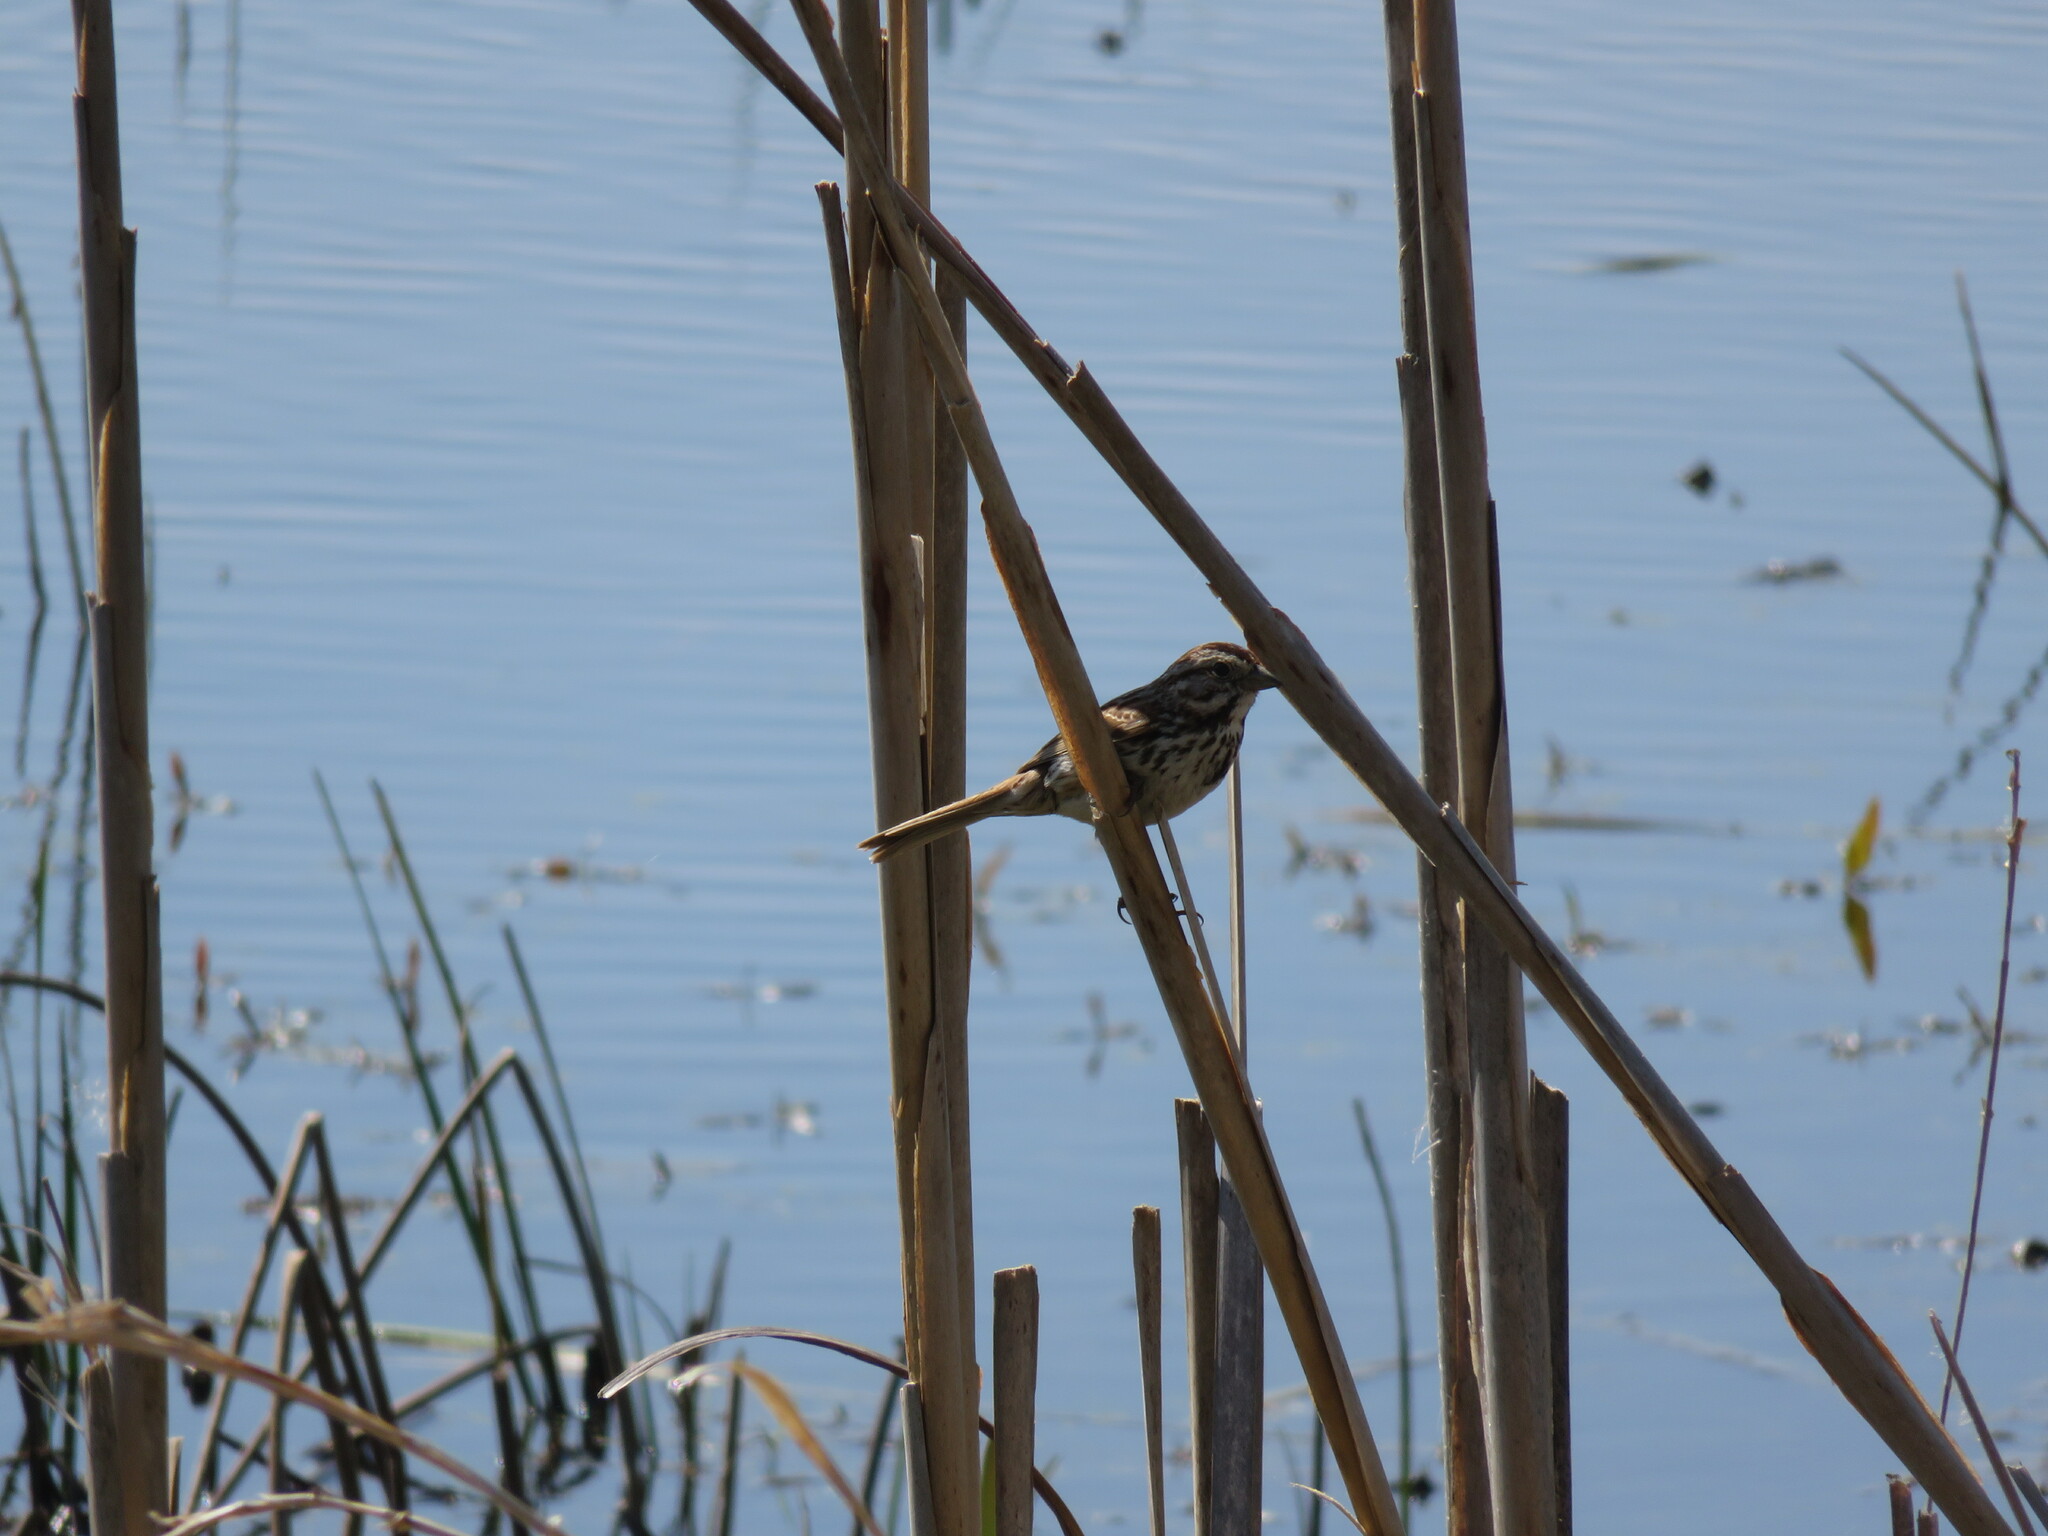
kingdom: Animalia
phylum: Chordata
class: Aves
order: Passeriformes
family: Passerellidae
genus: Melospiza
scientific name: Melospiza melodia
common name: Song sparrow
